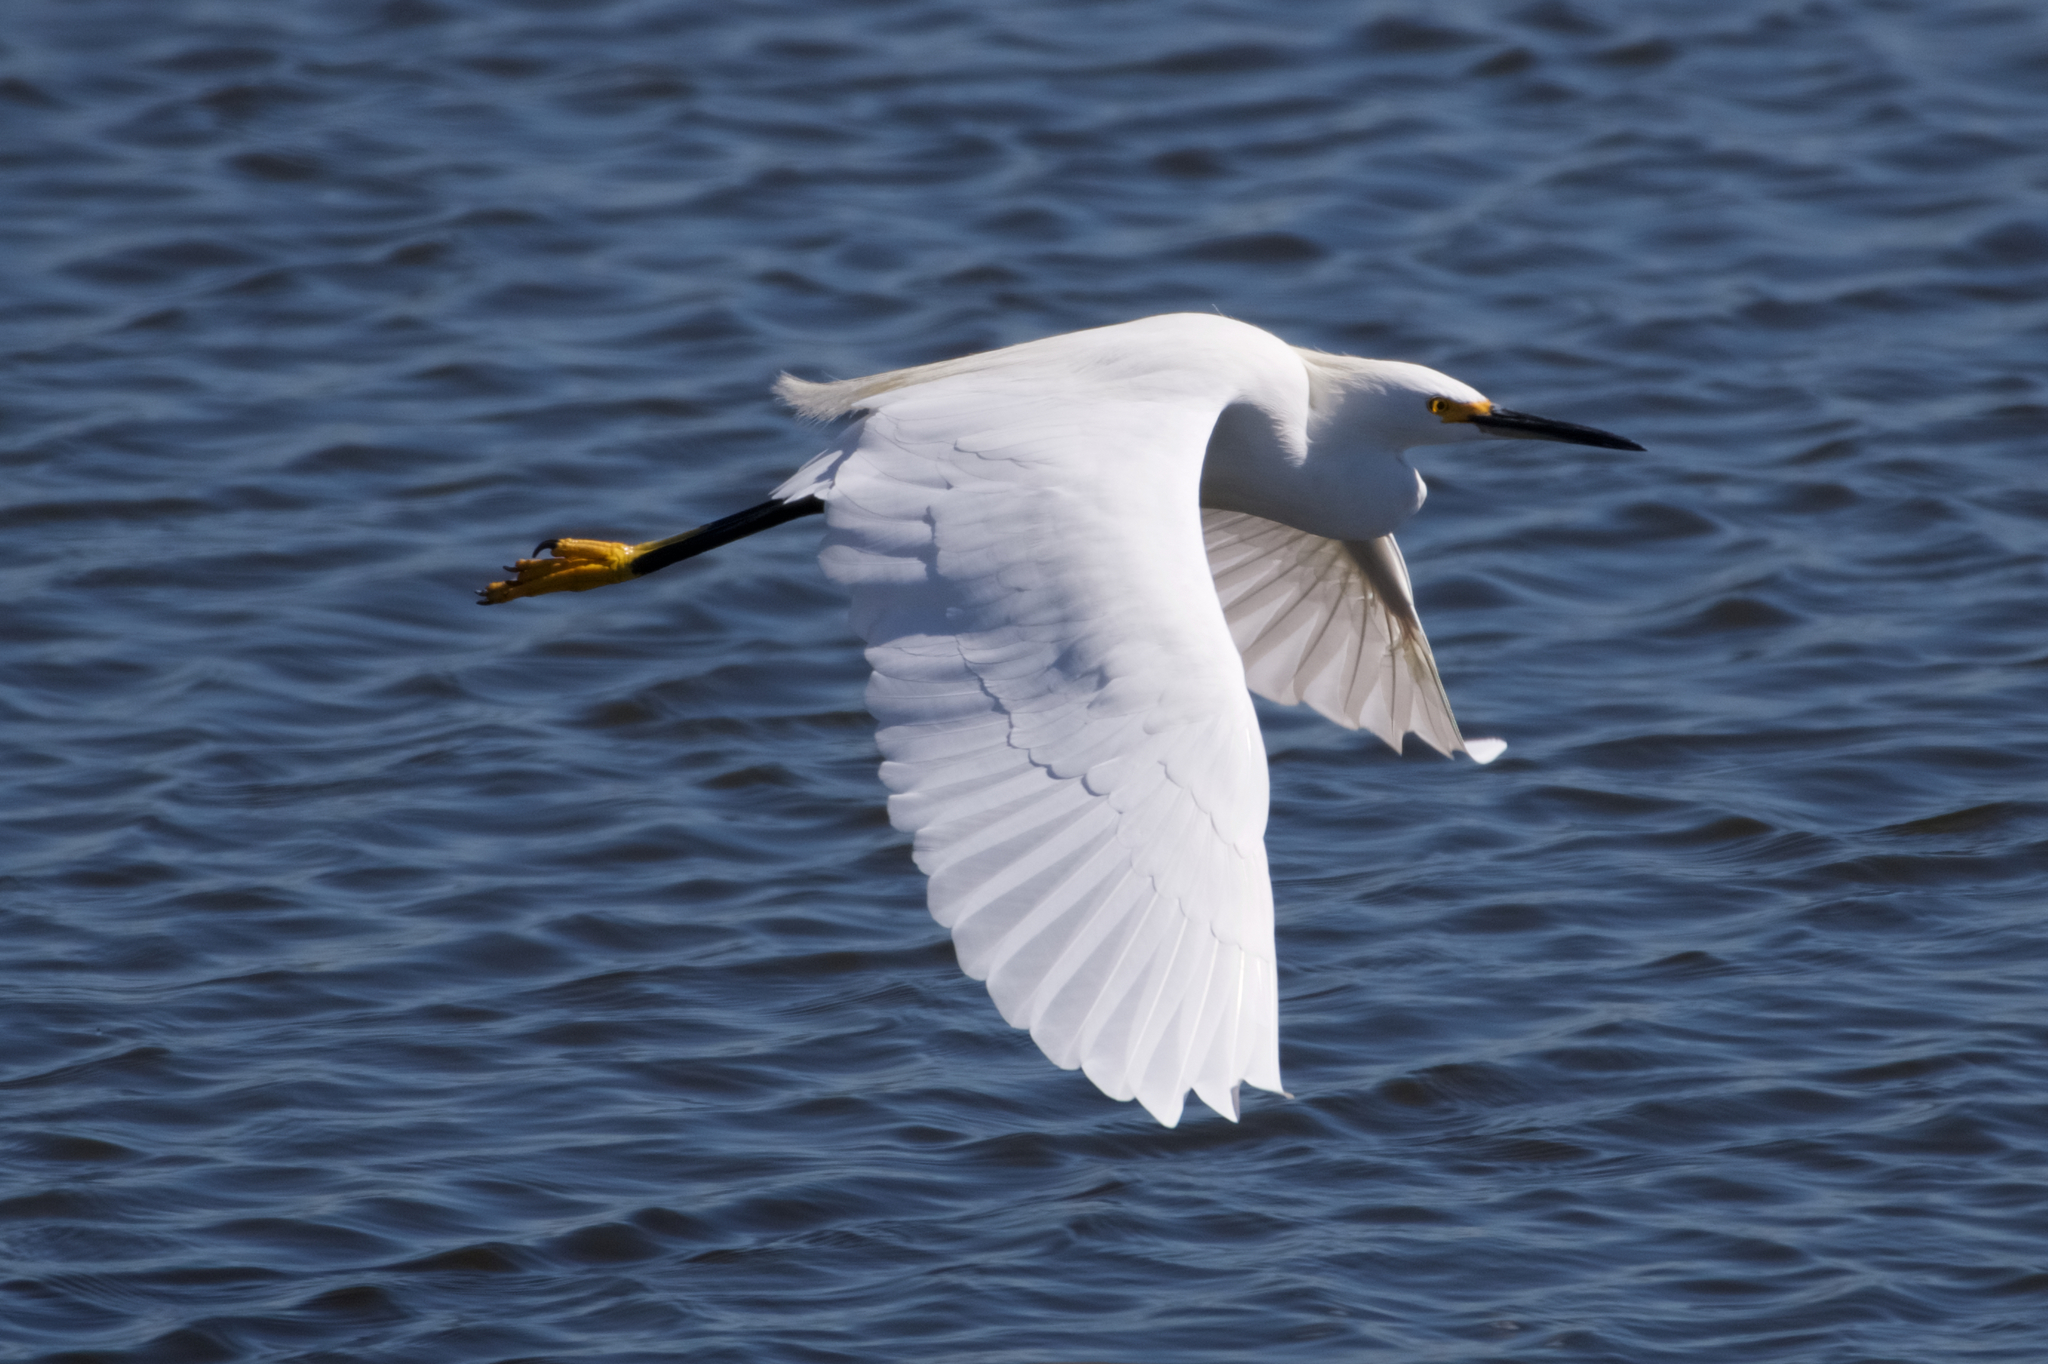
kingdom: Animalia
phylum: Chordata
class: Aves
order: Pelecaniformes
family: Ardeidae
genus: Egretta
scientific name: Egretta thula
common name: Snowy egret
